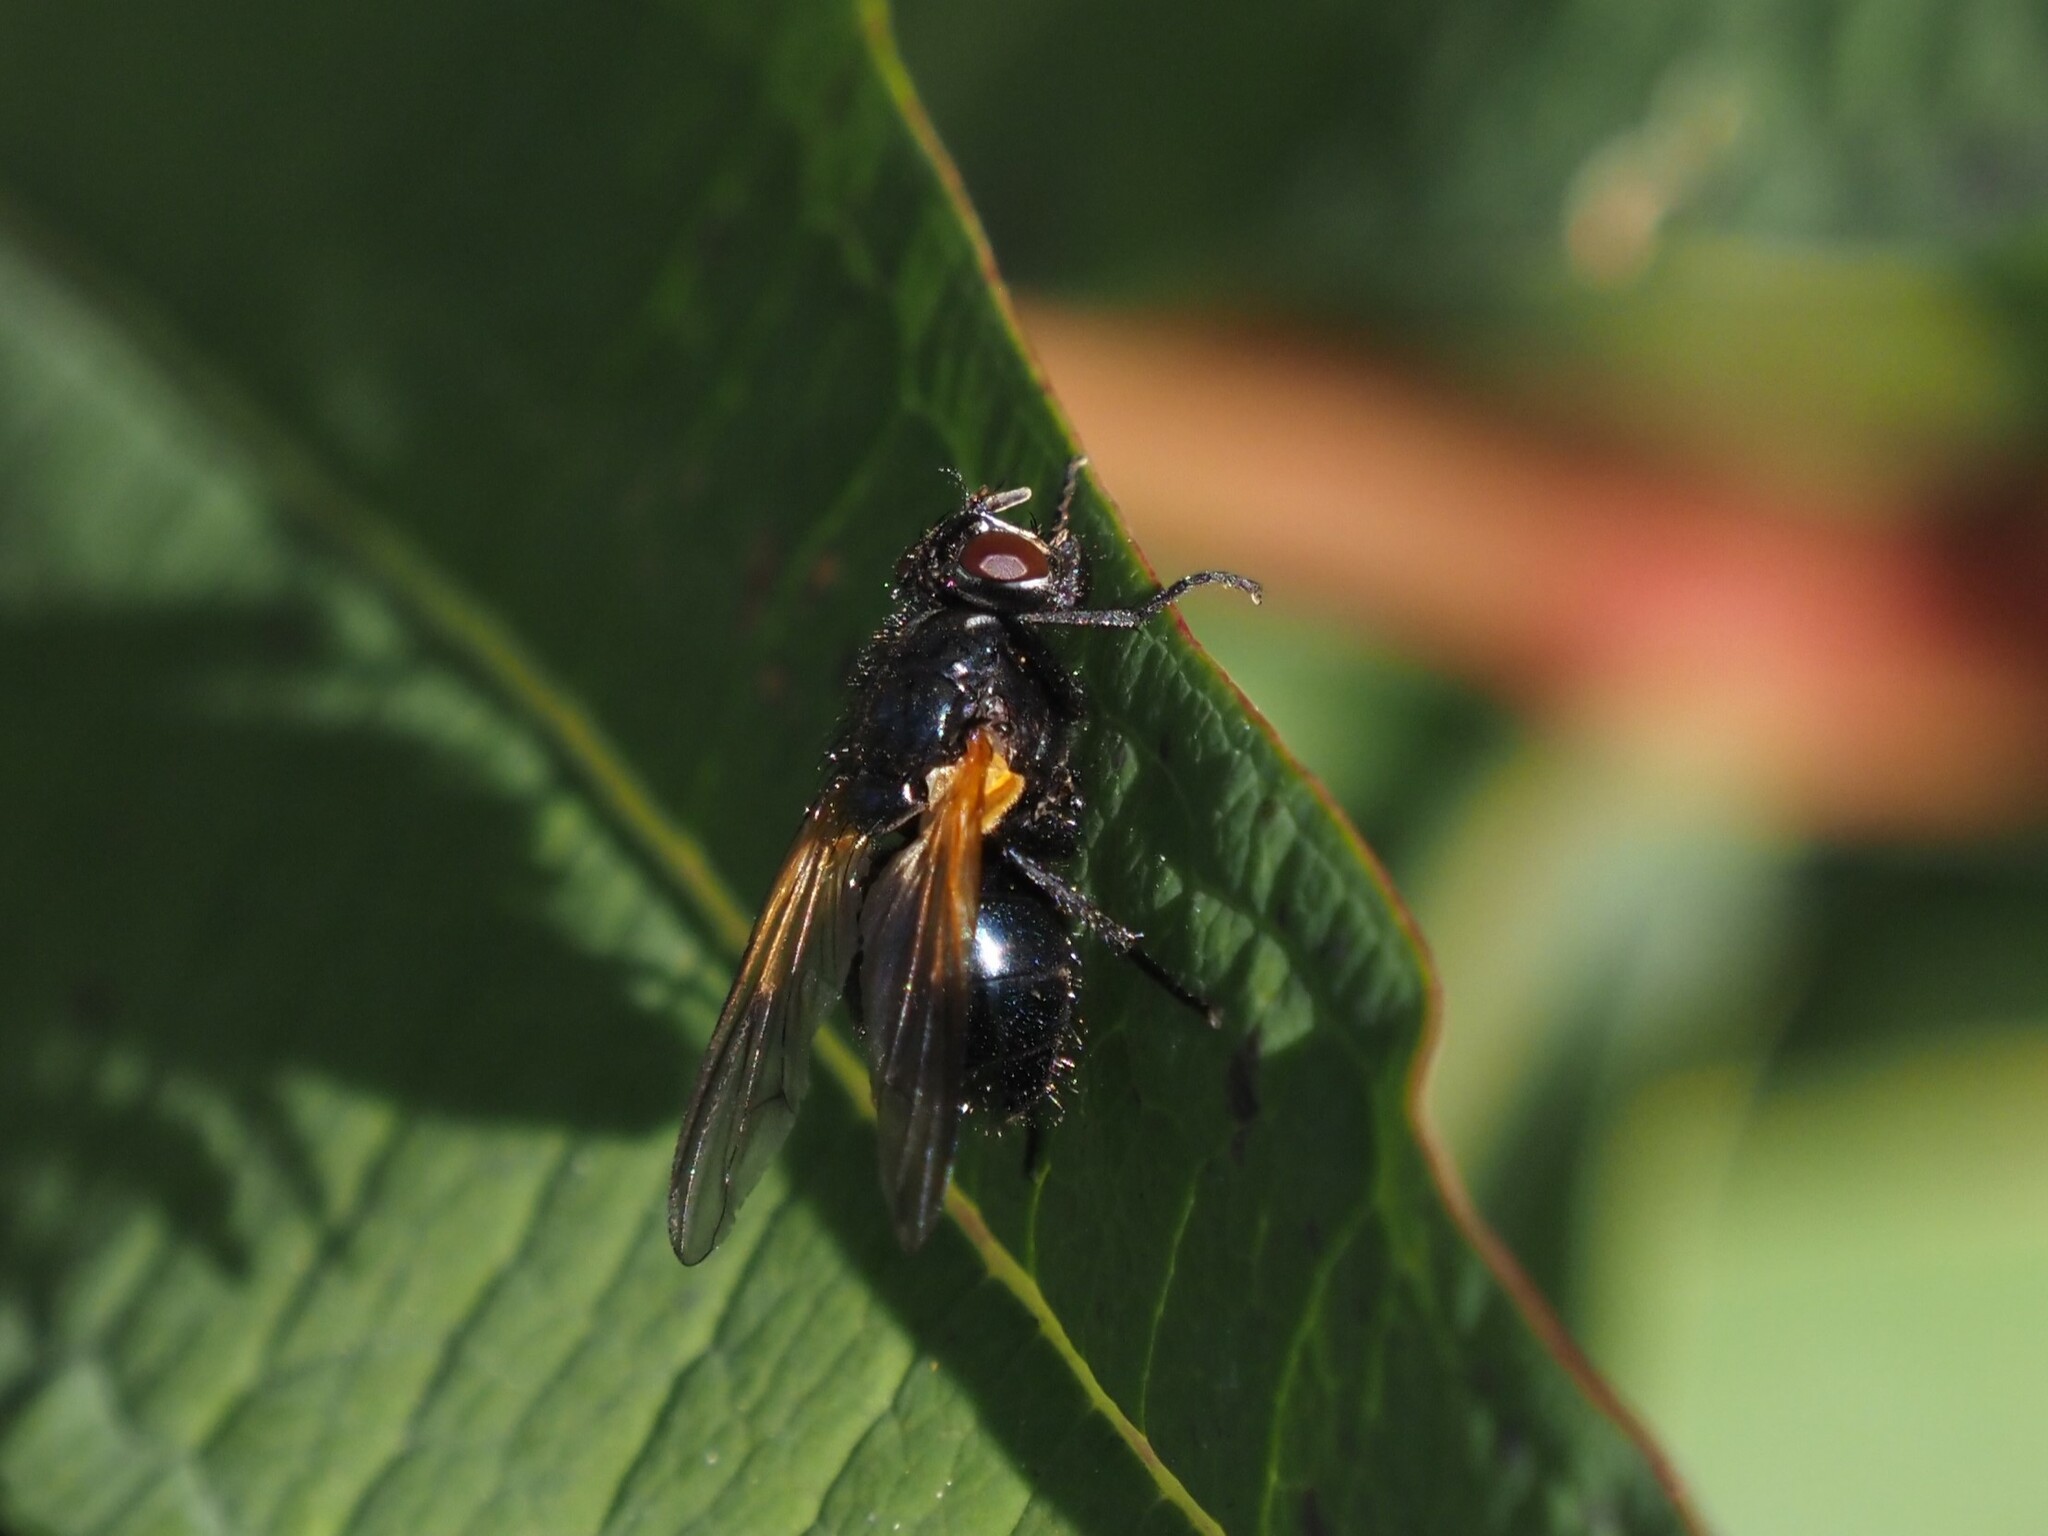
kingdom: Animalia
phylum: Arthropoda
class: Insecta
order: Diptera
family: Muscidae
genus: Mesembrina
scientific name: Mesembrina latreillii
